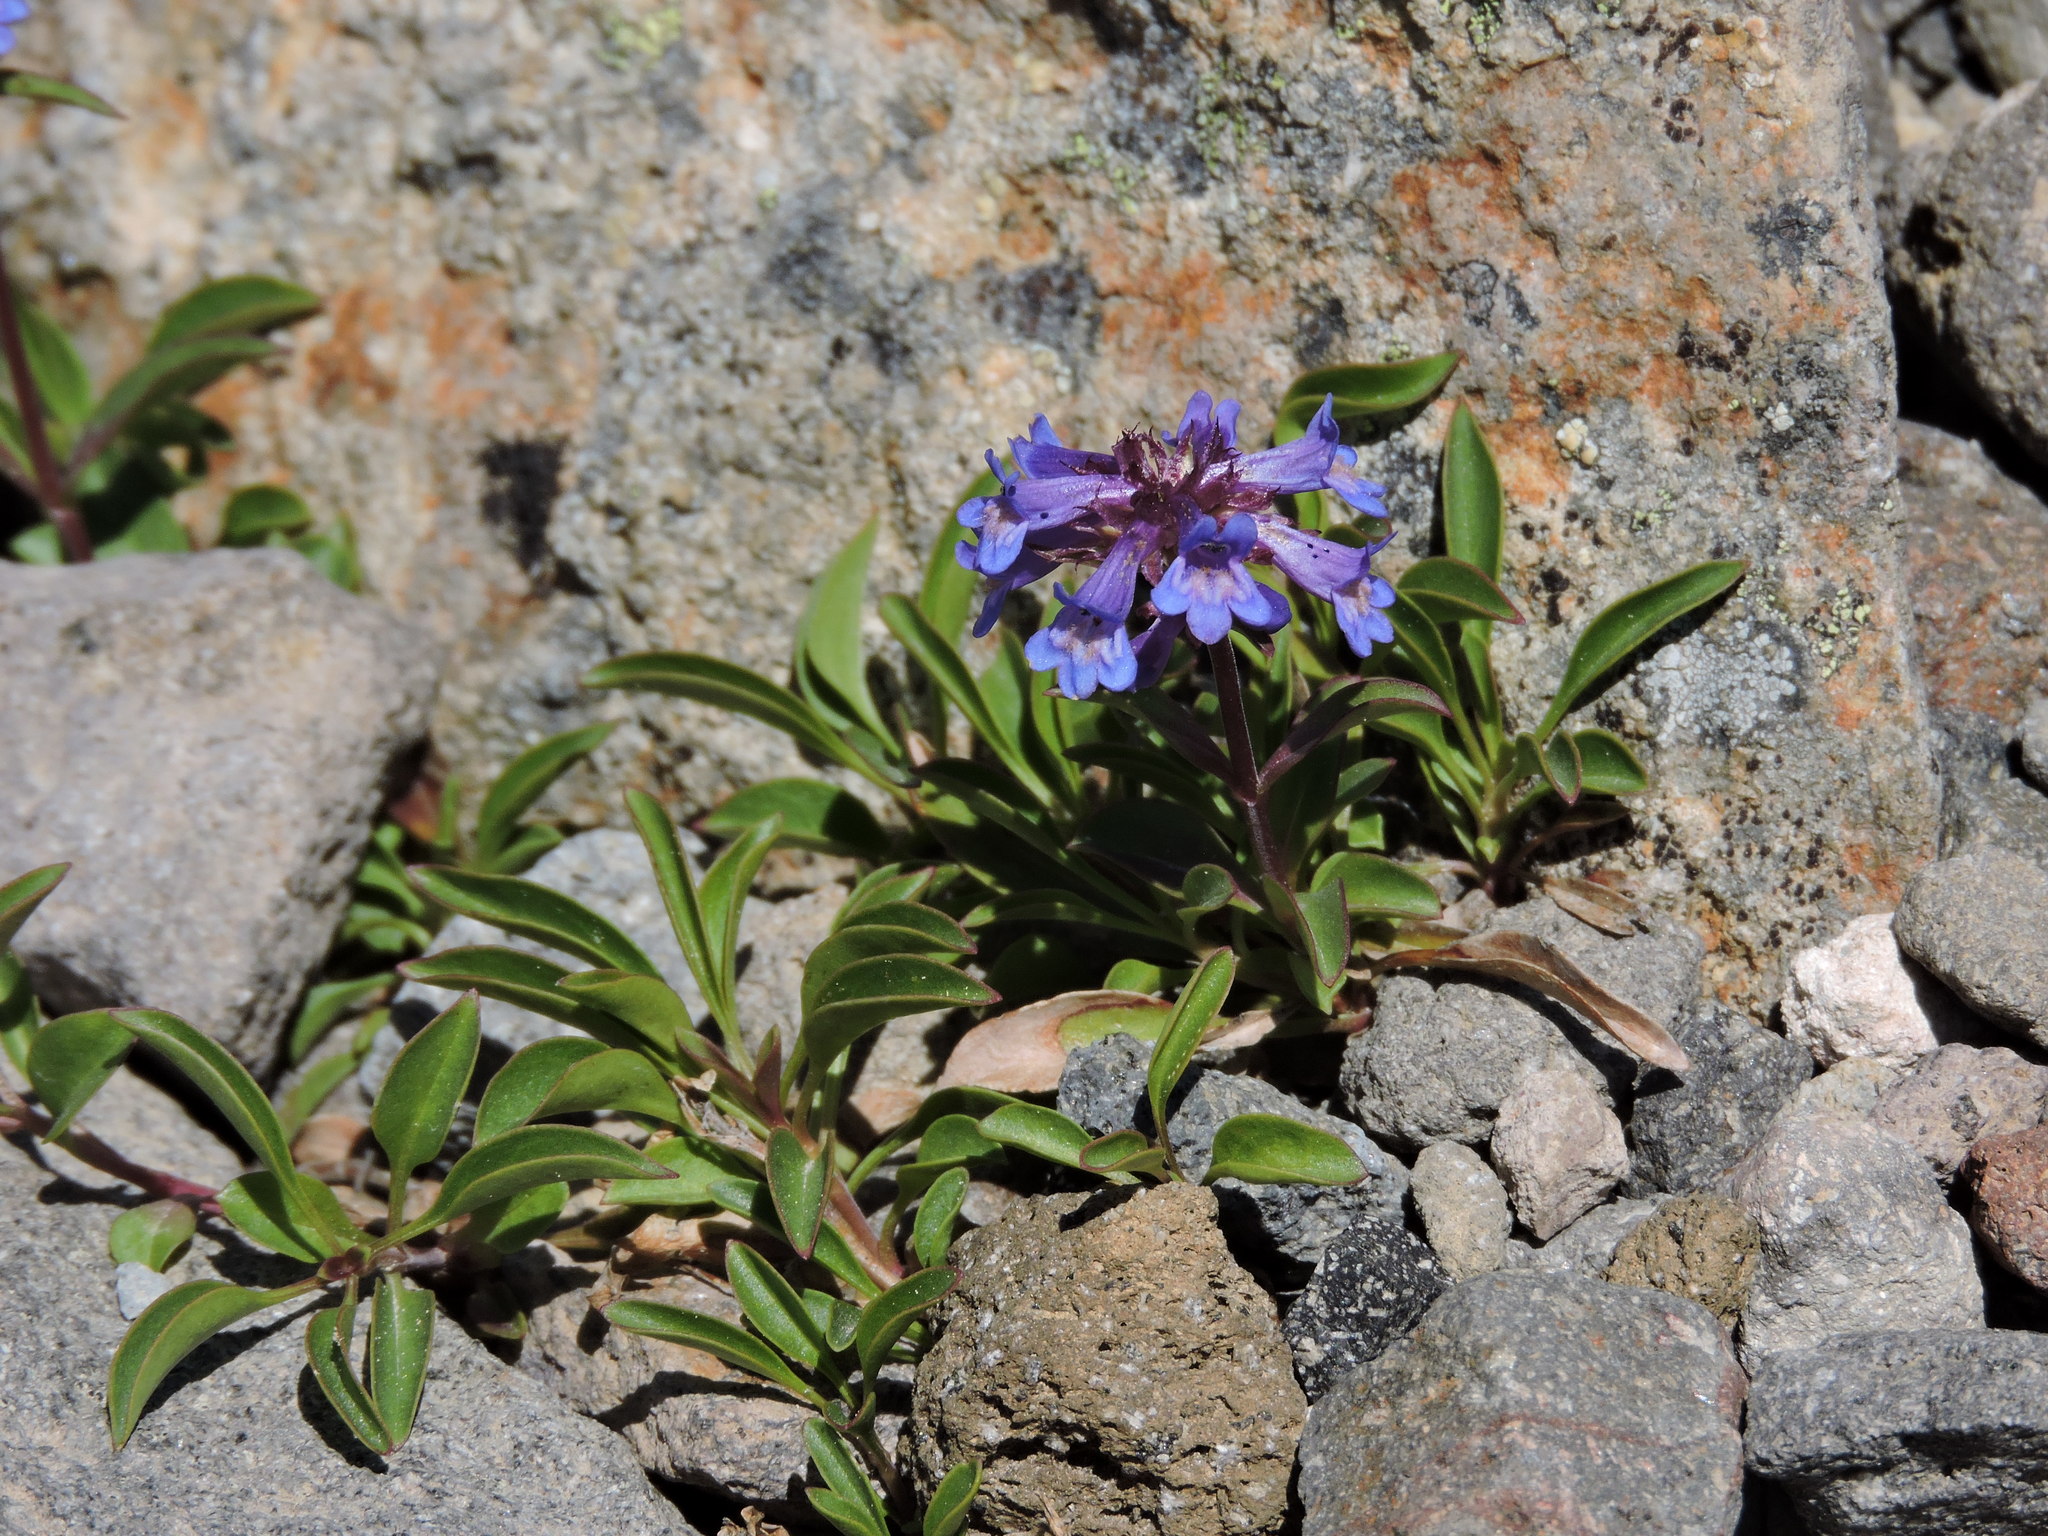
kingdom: Plantae
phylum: Tracheophyta
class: Magnoliopsida
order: Lamiales
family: Plantaginaceae
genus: Penstemon
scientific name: Penstemon procerus
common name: Small-flower penstemon
